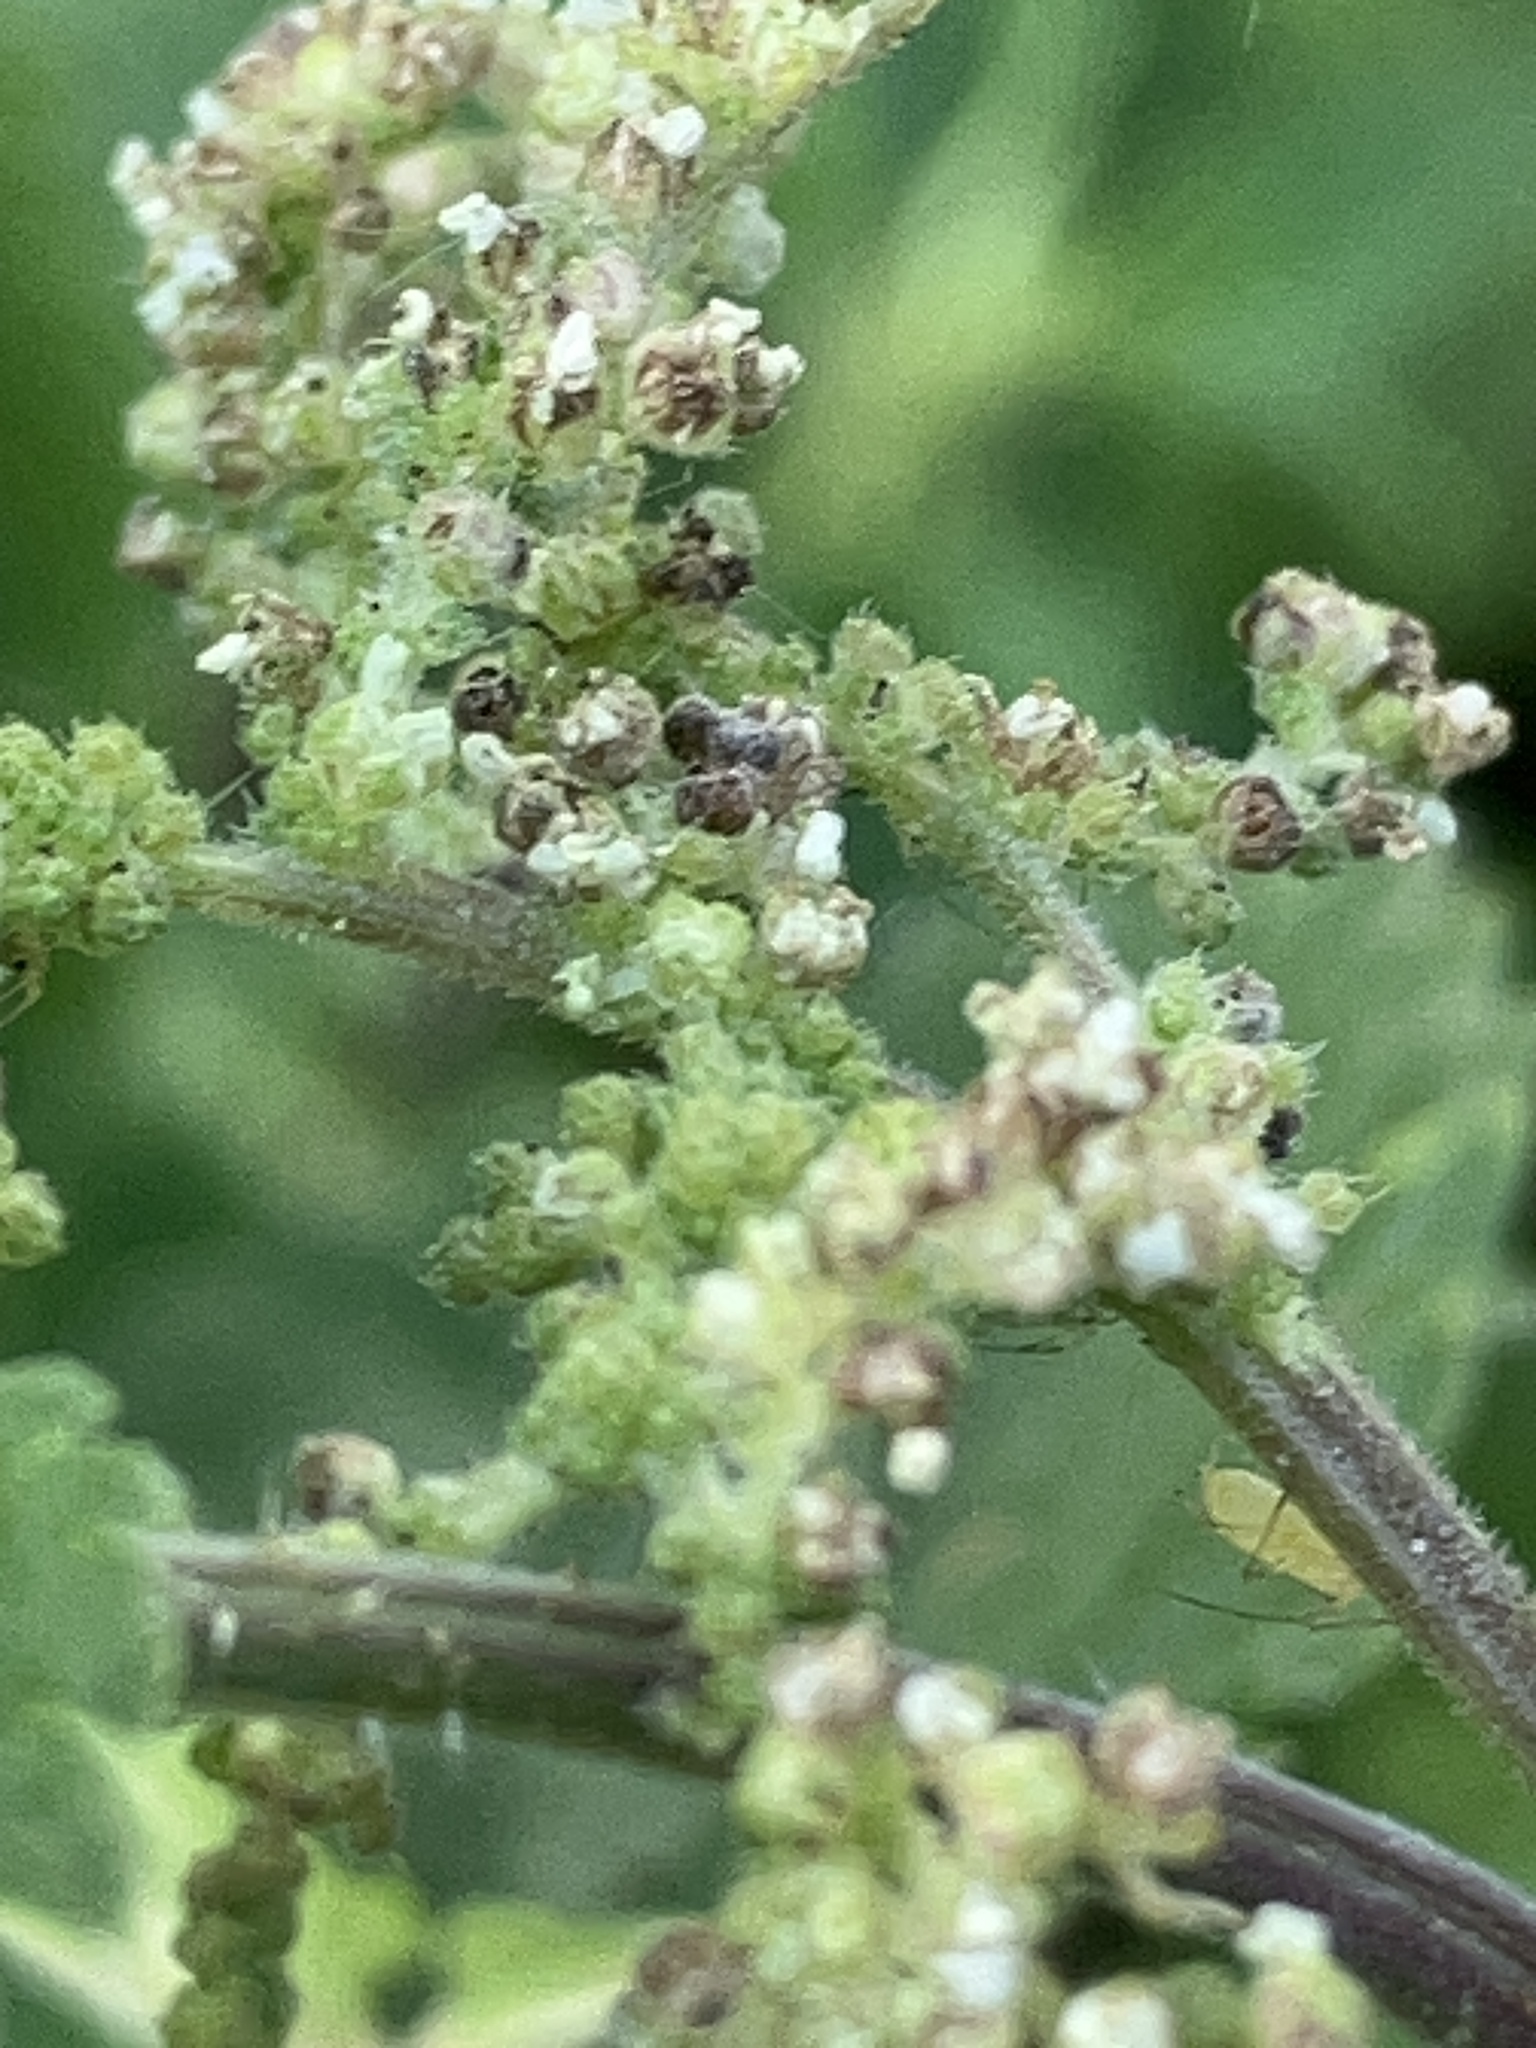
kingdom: Plantae
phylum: Tracheophyta
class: Magnoliopsida
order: Rosales
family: Urticaceae
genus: Urtica
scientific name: Urtica dioica
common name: Common nettle
